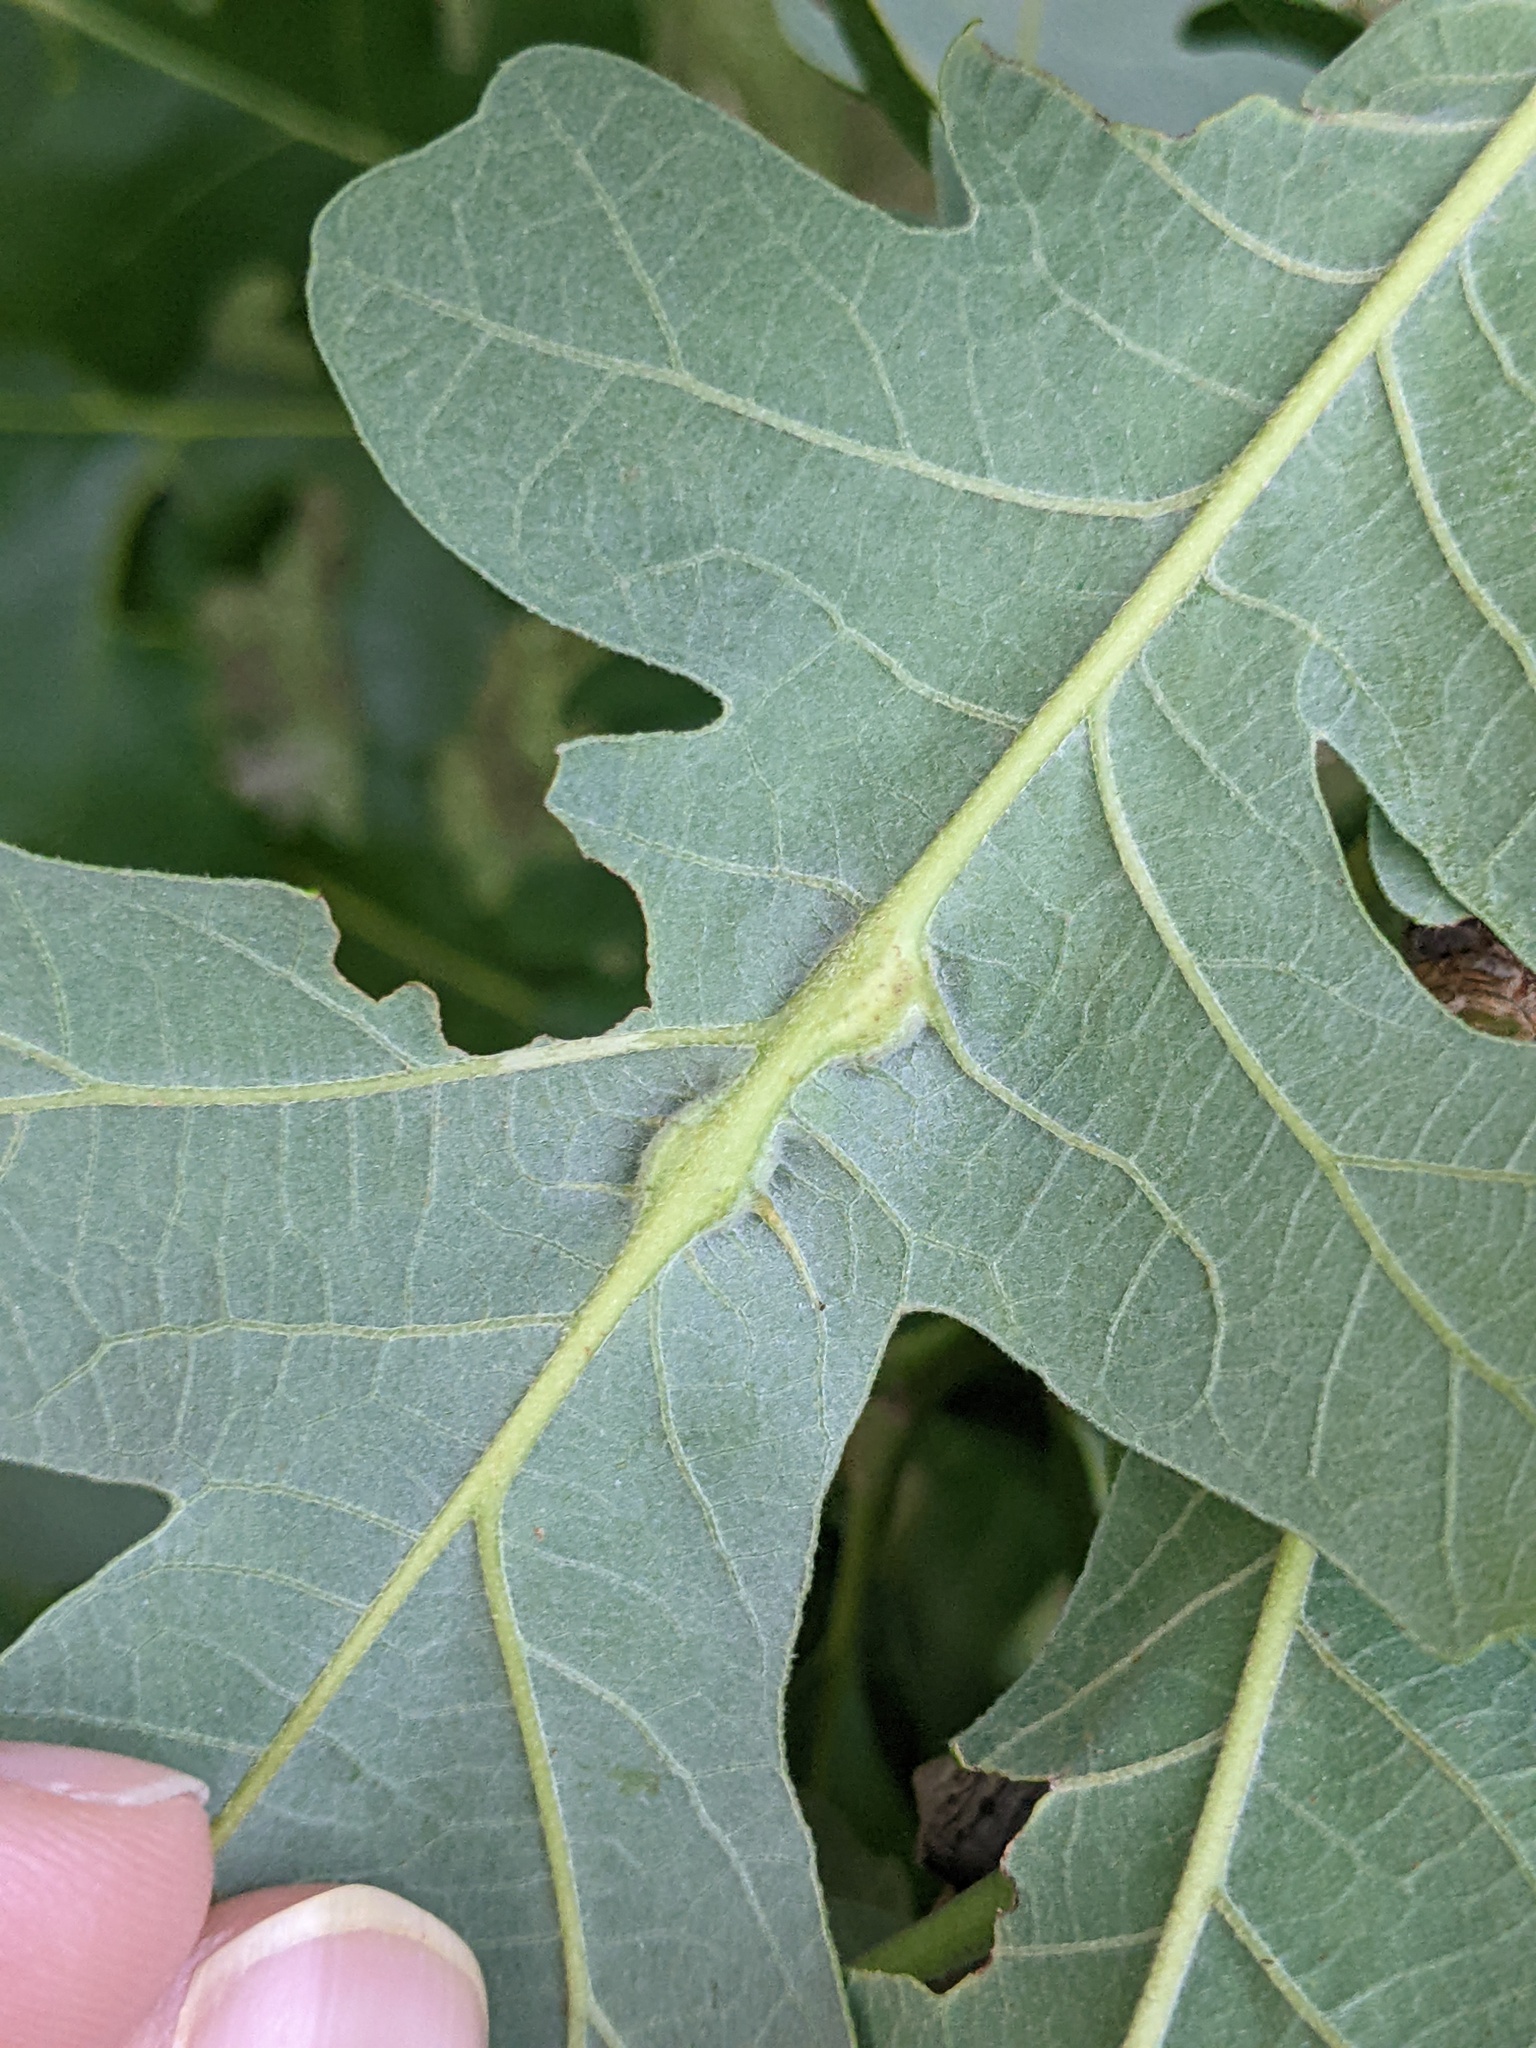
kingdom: Animalia
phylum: Arthropoda
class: Insecta
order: Hymenoptera
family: Cynipidae
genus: Bassettia
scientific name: Bassettia flavipes
